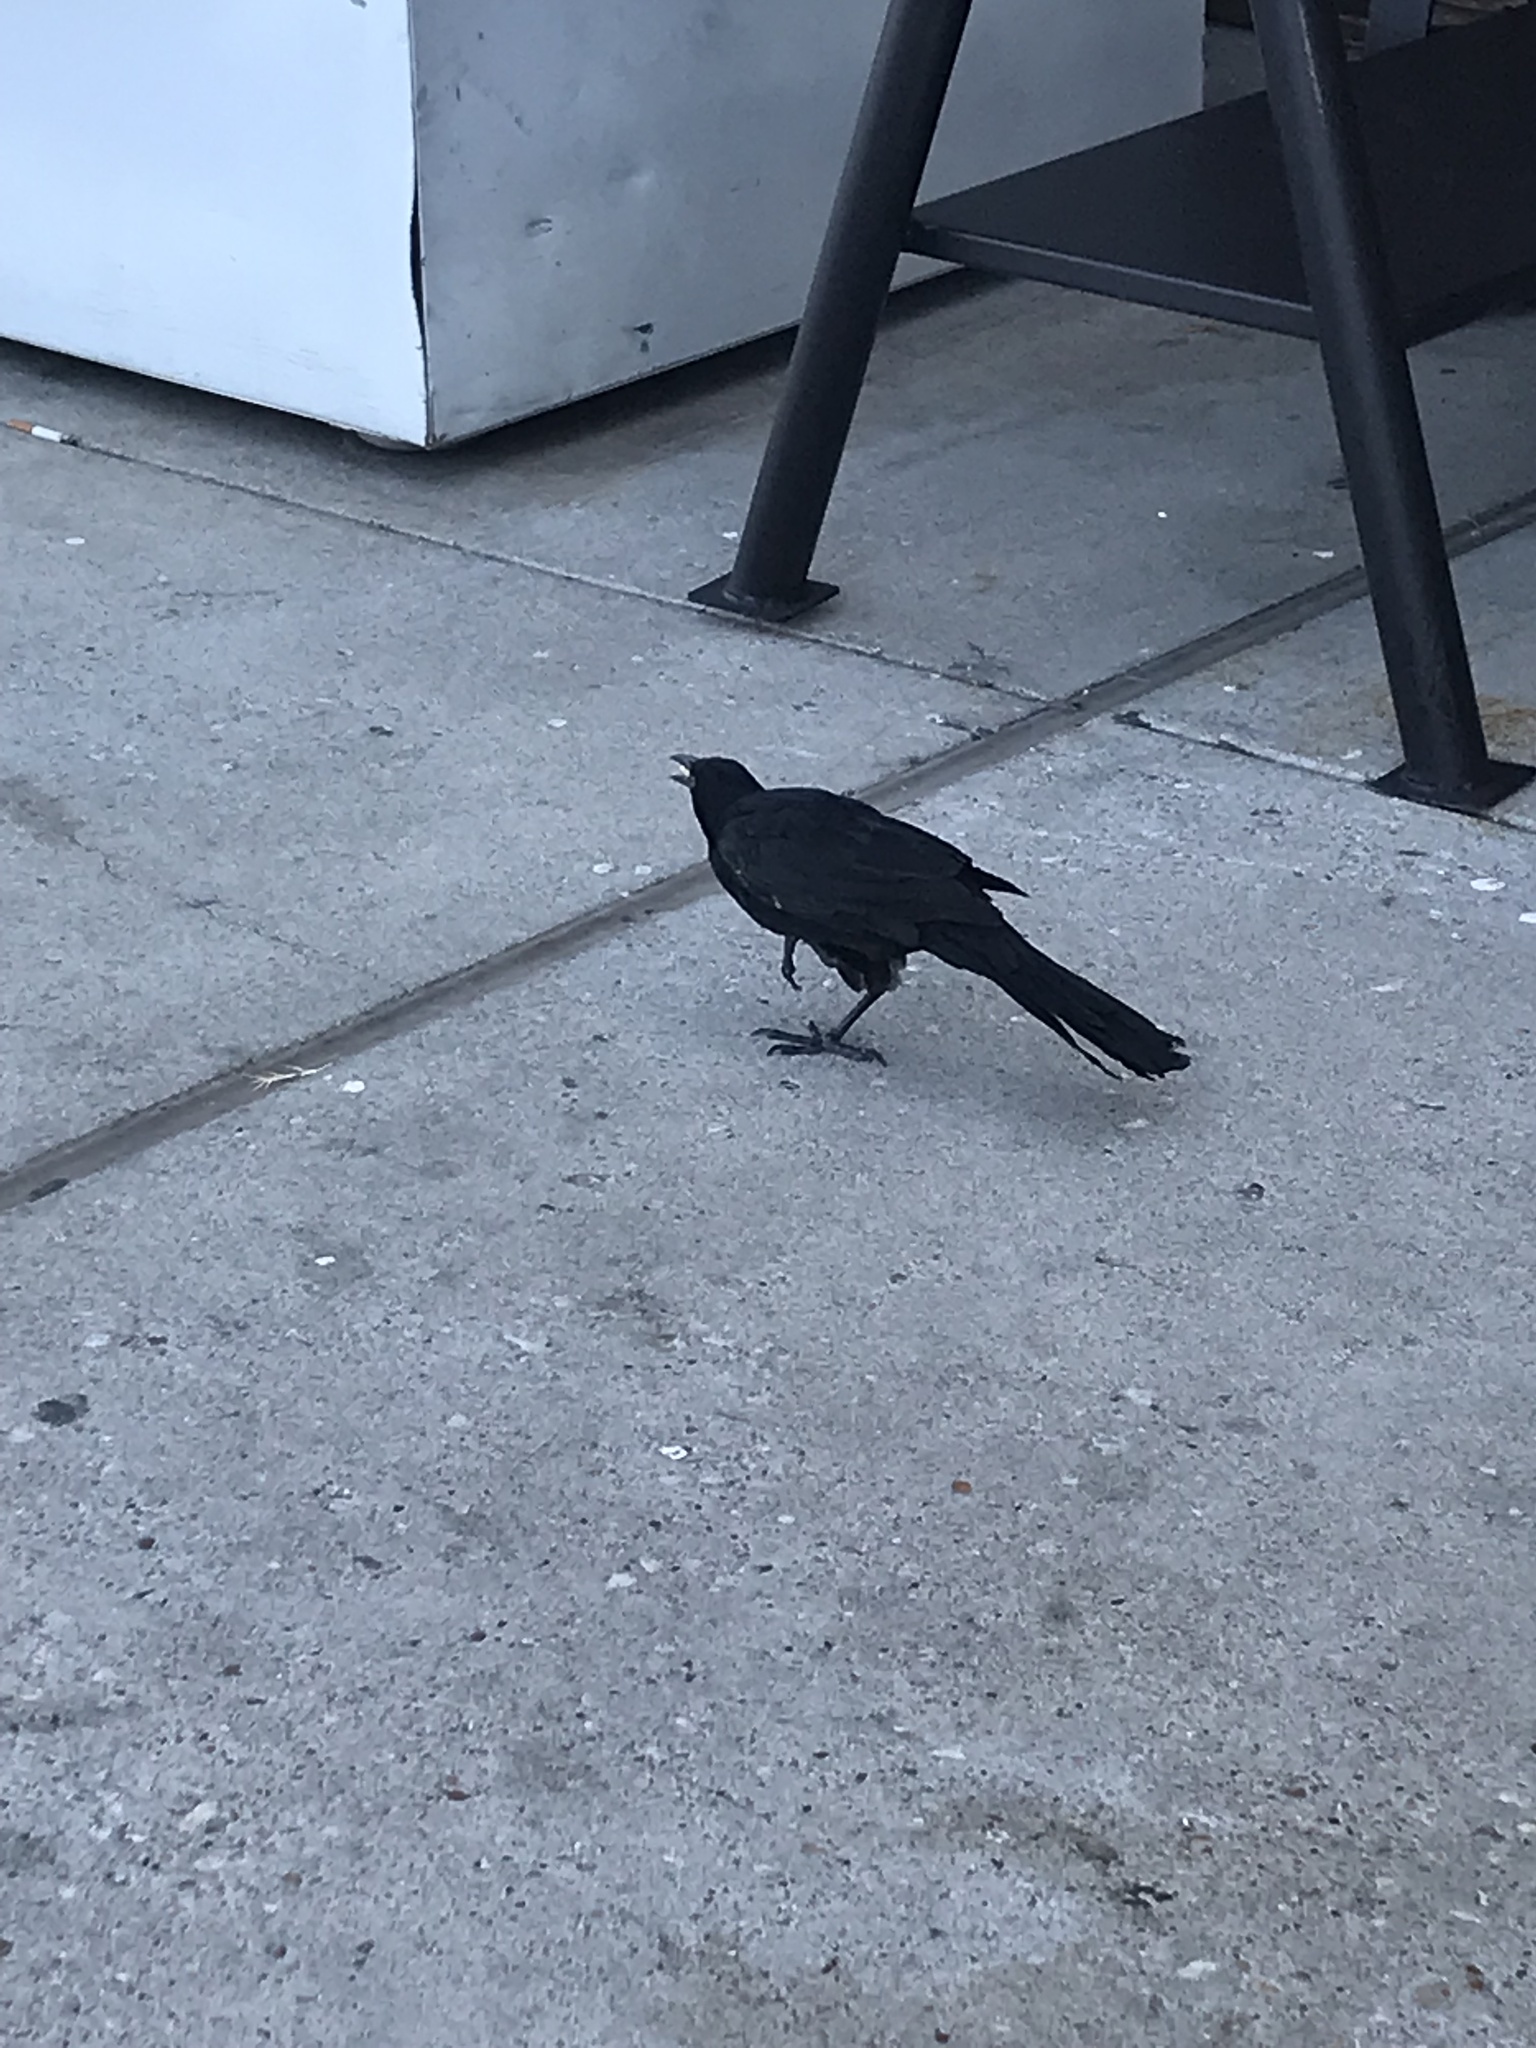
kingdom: Animalia
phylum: Chordata
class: Aves
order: Passeriformes
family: Icteridae
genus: Quiscalus
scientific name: Quiscalus mexicanus
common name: Great-tailed grackle
